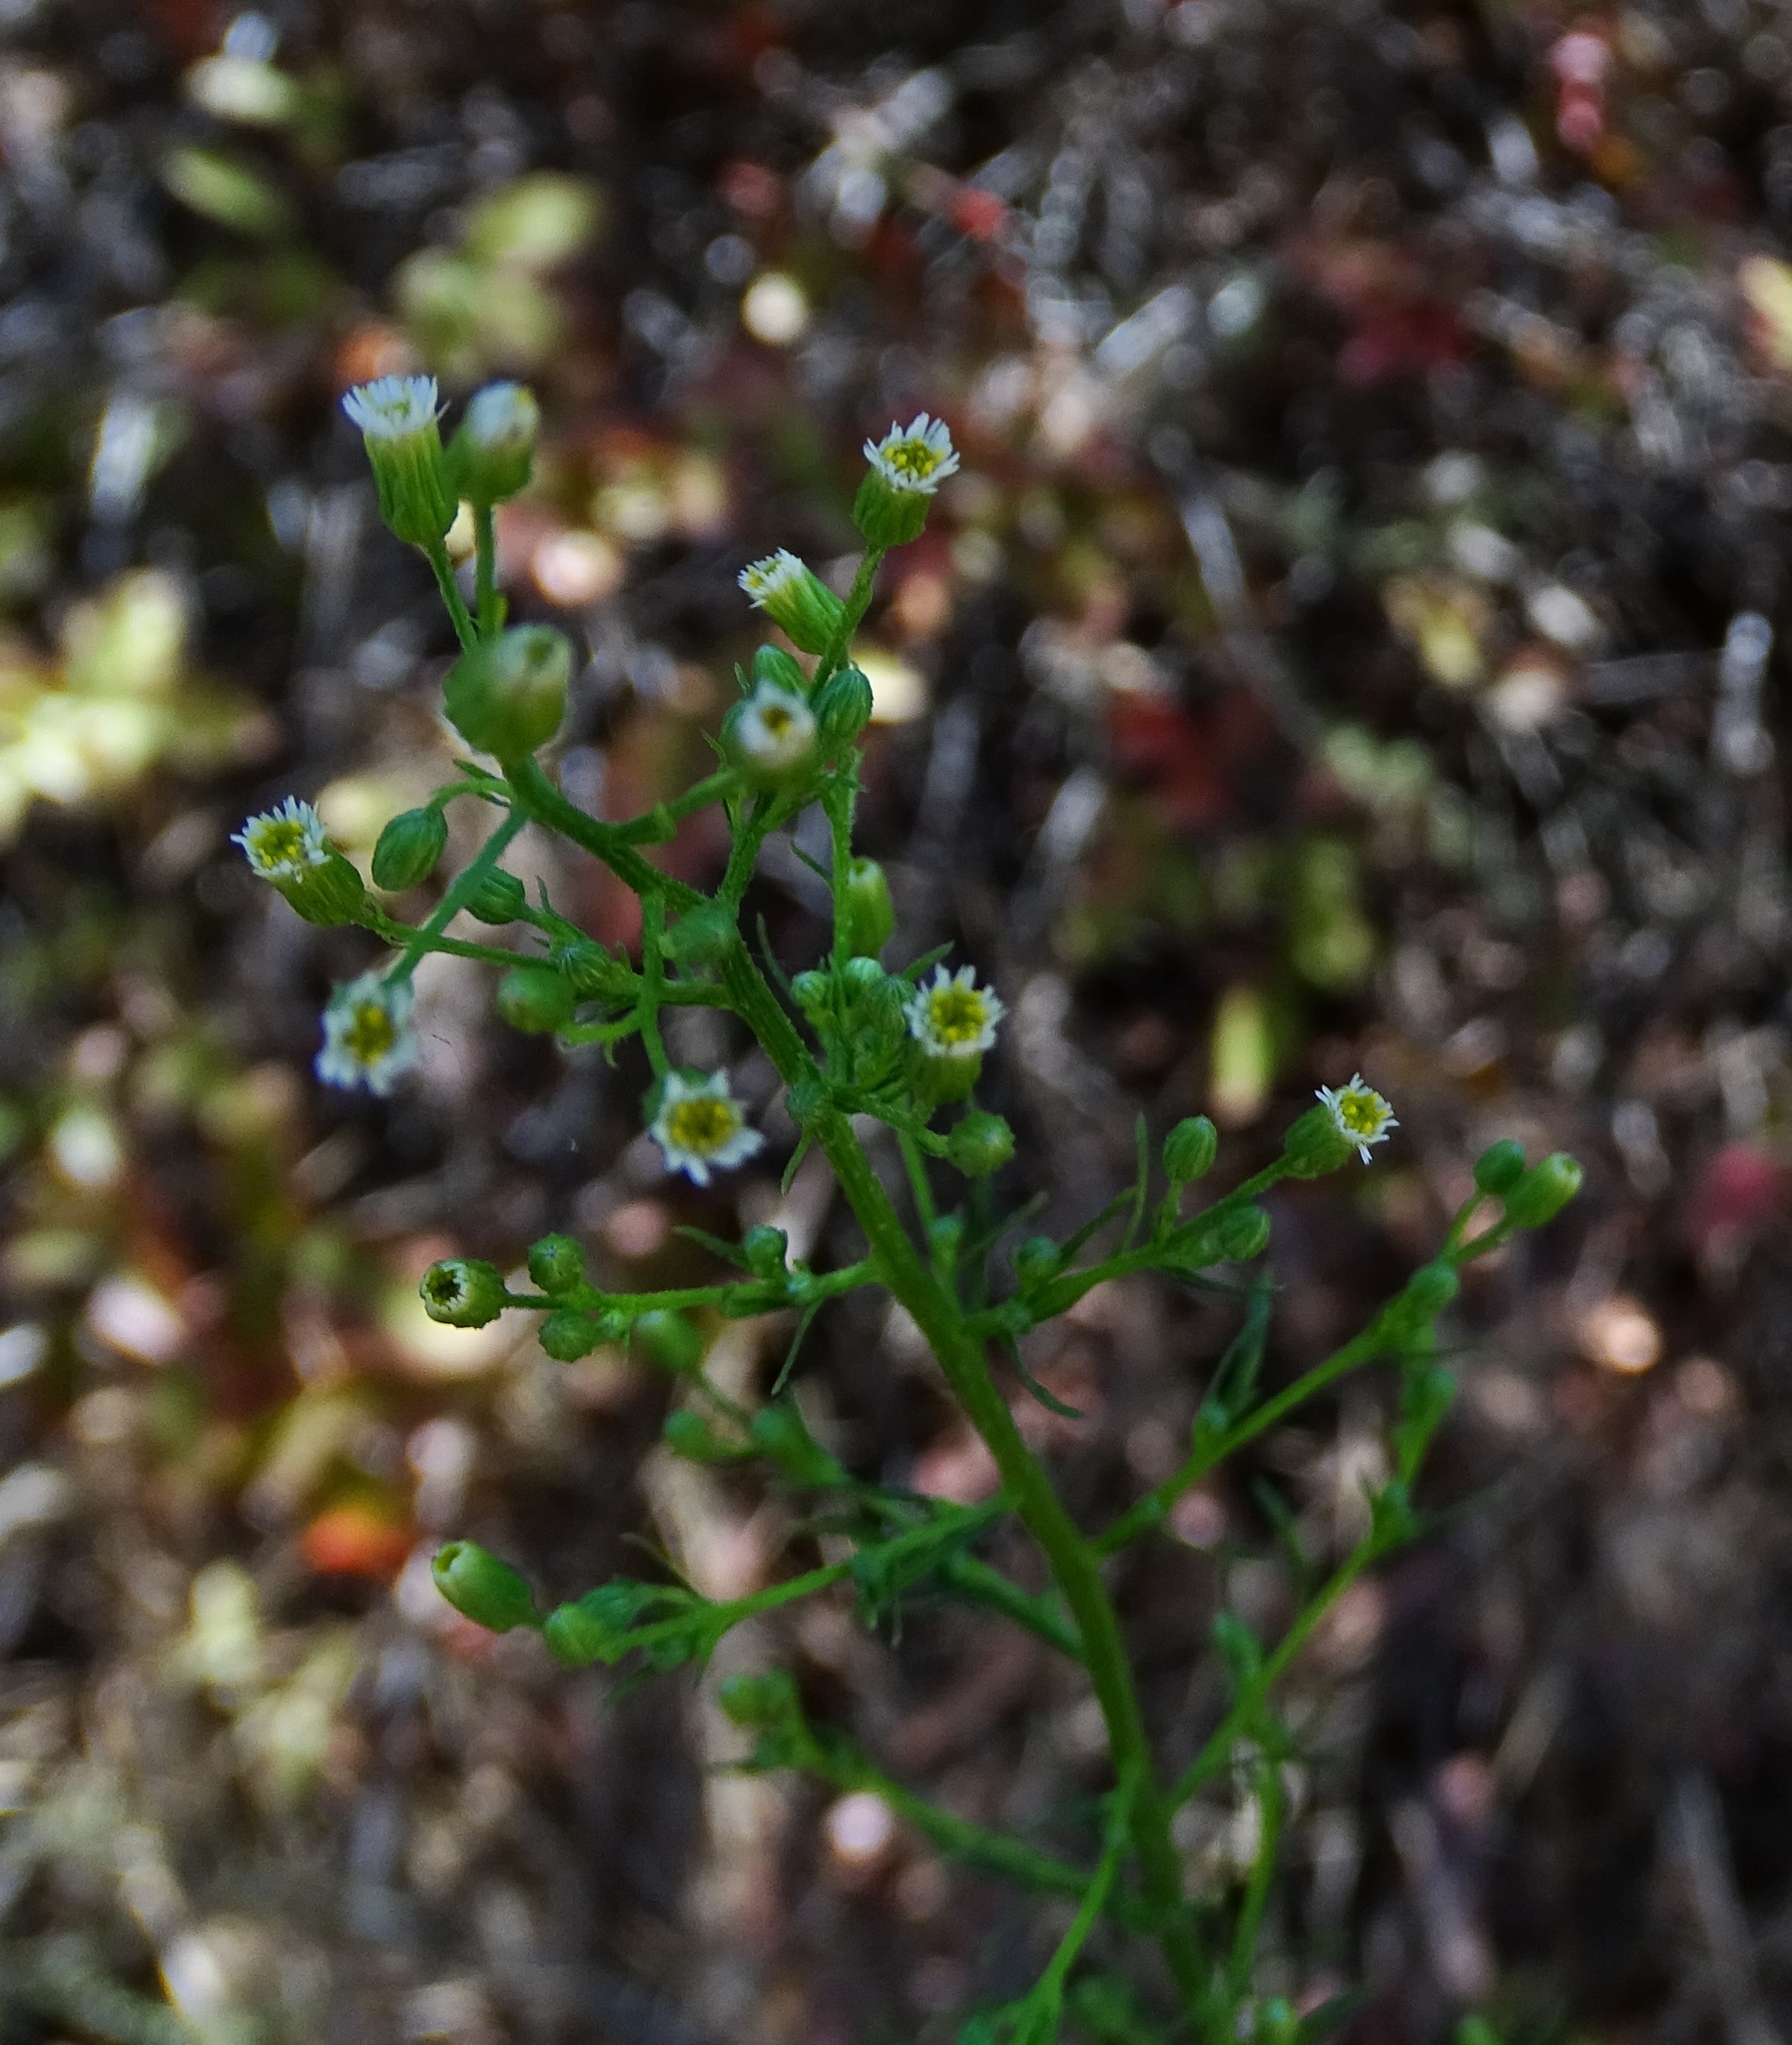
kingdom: Plantae
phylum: Tracheophyta
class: Magnoliopsida
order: Asterales
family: Asteraceae
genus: Erigeron
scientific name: Erigeron canadensis
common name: Canadian fleabane
